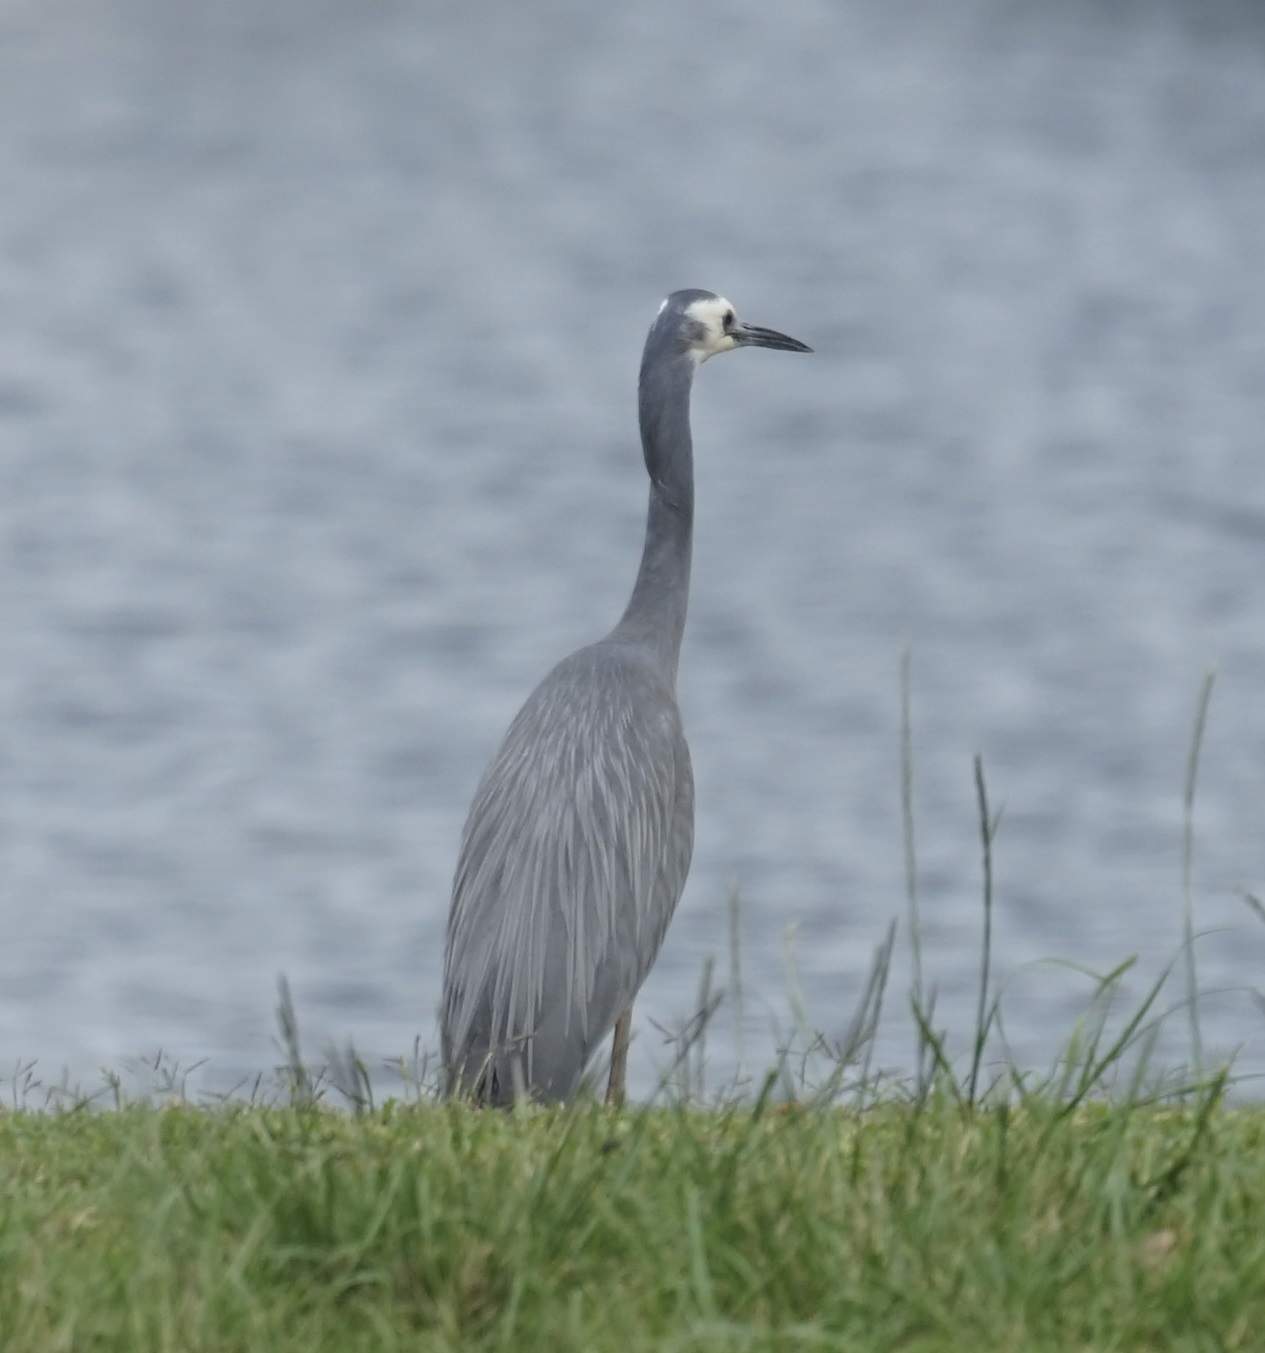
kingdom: Animalia
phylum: Chordata
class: Aves
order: Pelecaniformes
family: Ardeidae
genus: Egretta
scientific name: Egretta novaehollandiae
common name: White-faced heron
